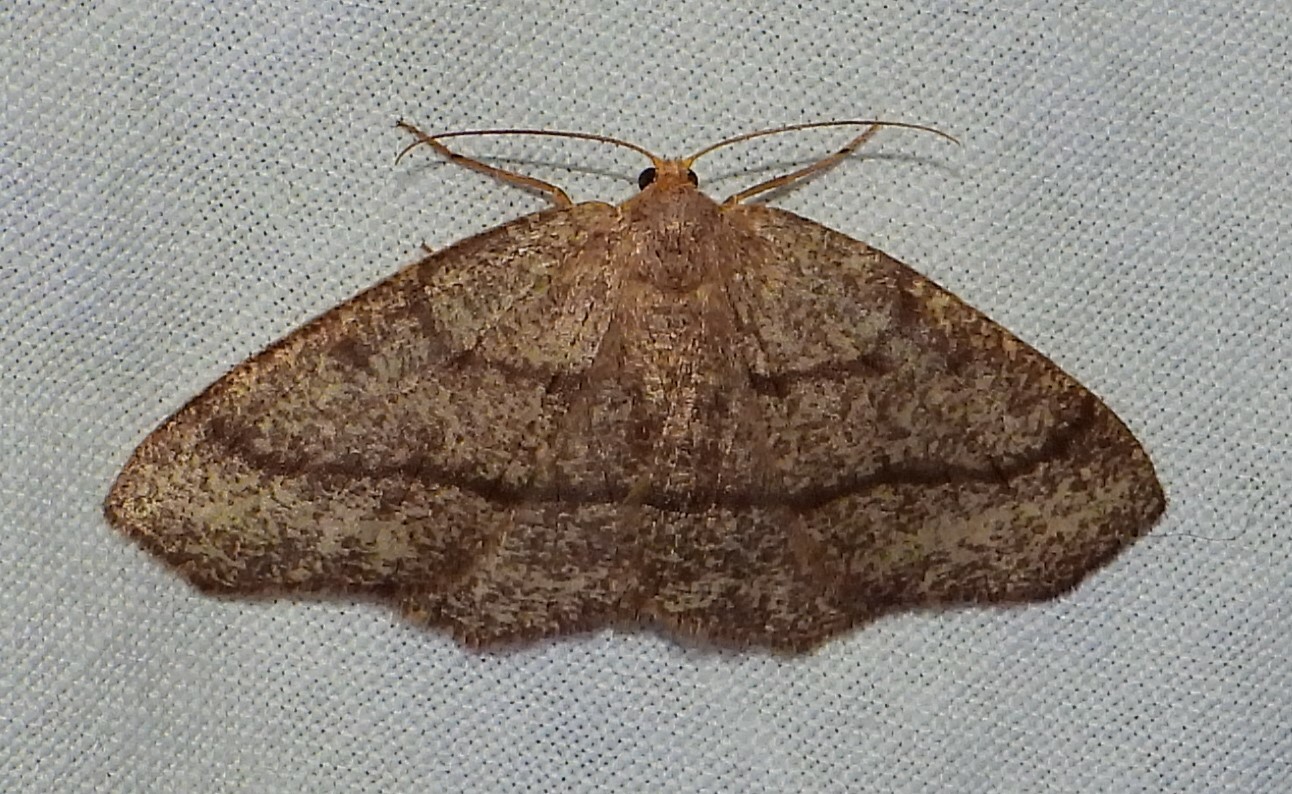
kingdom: Animalia
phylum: Arthropoda
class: Insecta
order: Lepidoptera
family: Geometridae
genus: Lambdina
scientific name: Lambdina fervidaria
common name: Curve-lined looper moth
